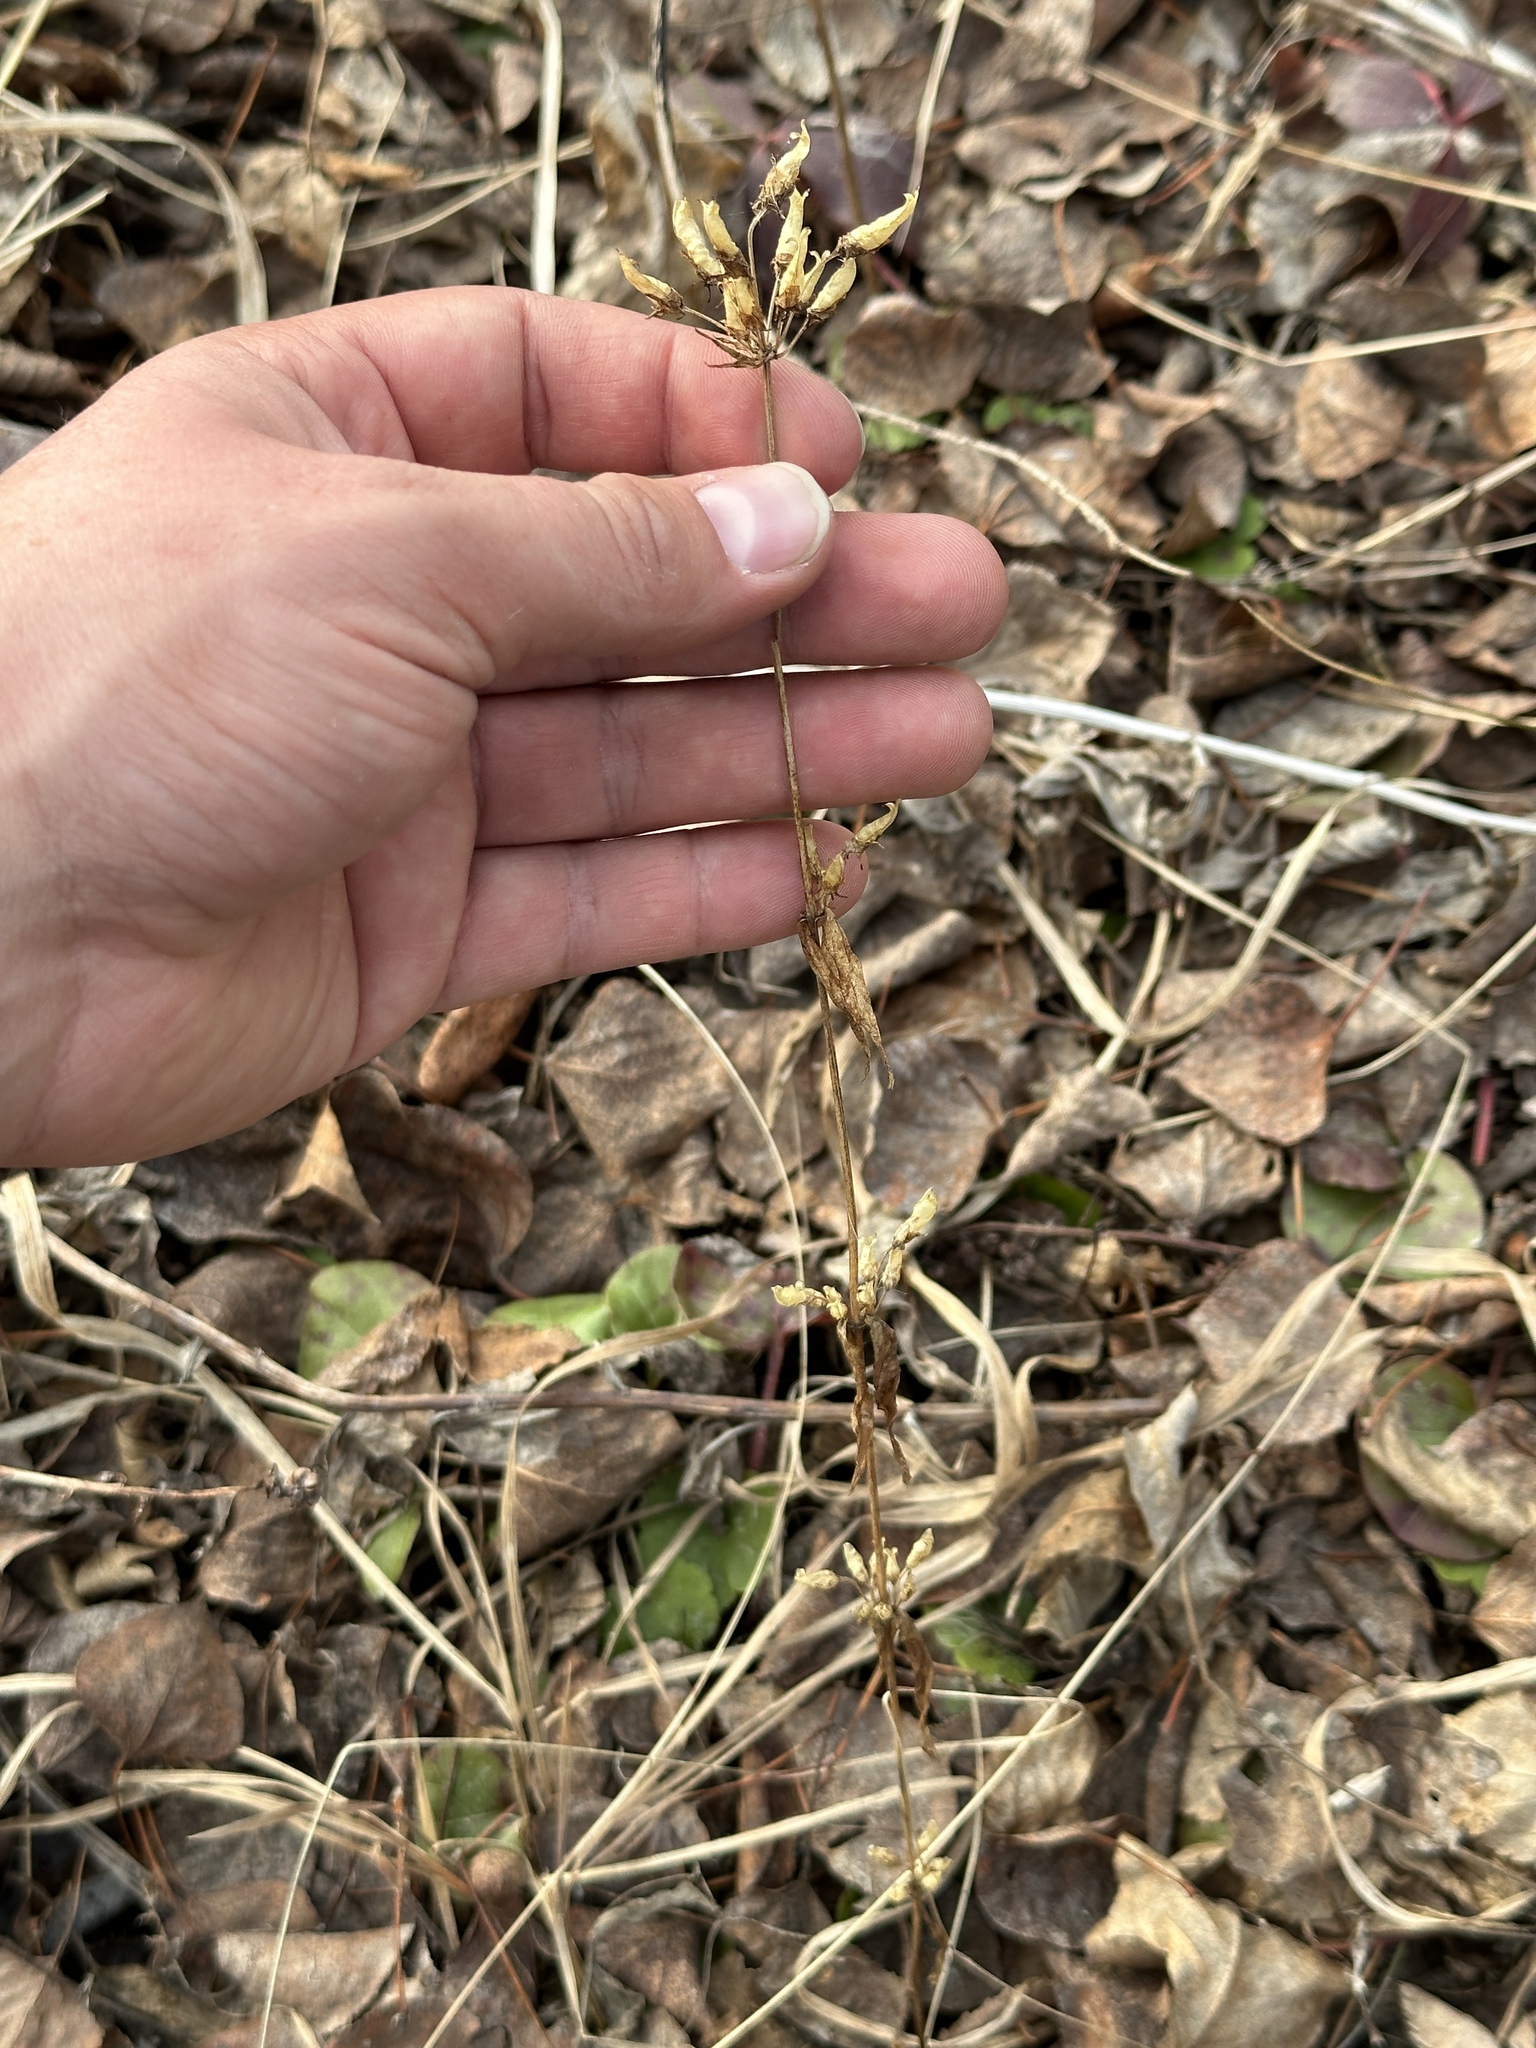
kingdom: Plantae
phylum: Tracheophyta
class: Magnoliopsida
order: Gentianales
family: Gentianaceae
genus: Halenia
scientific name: Halenia deflexa
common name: American spurred gentian
